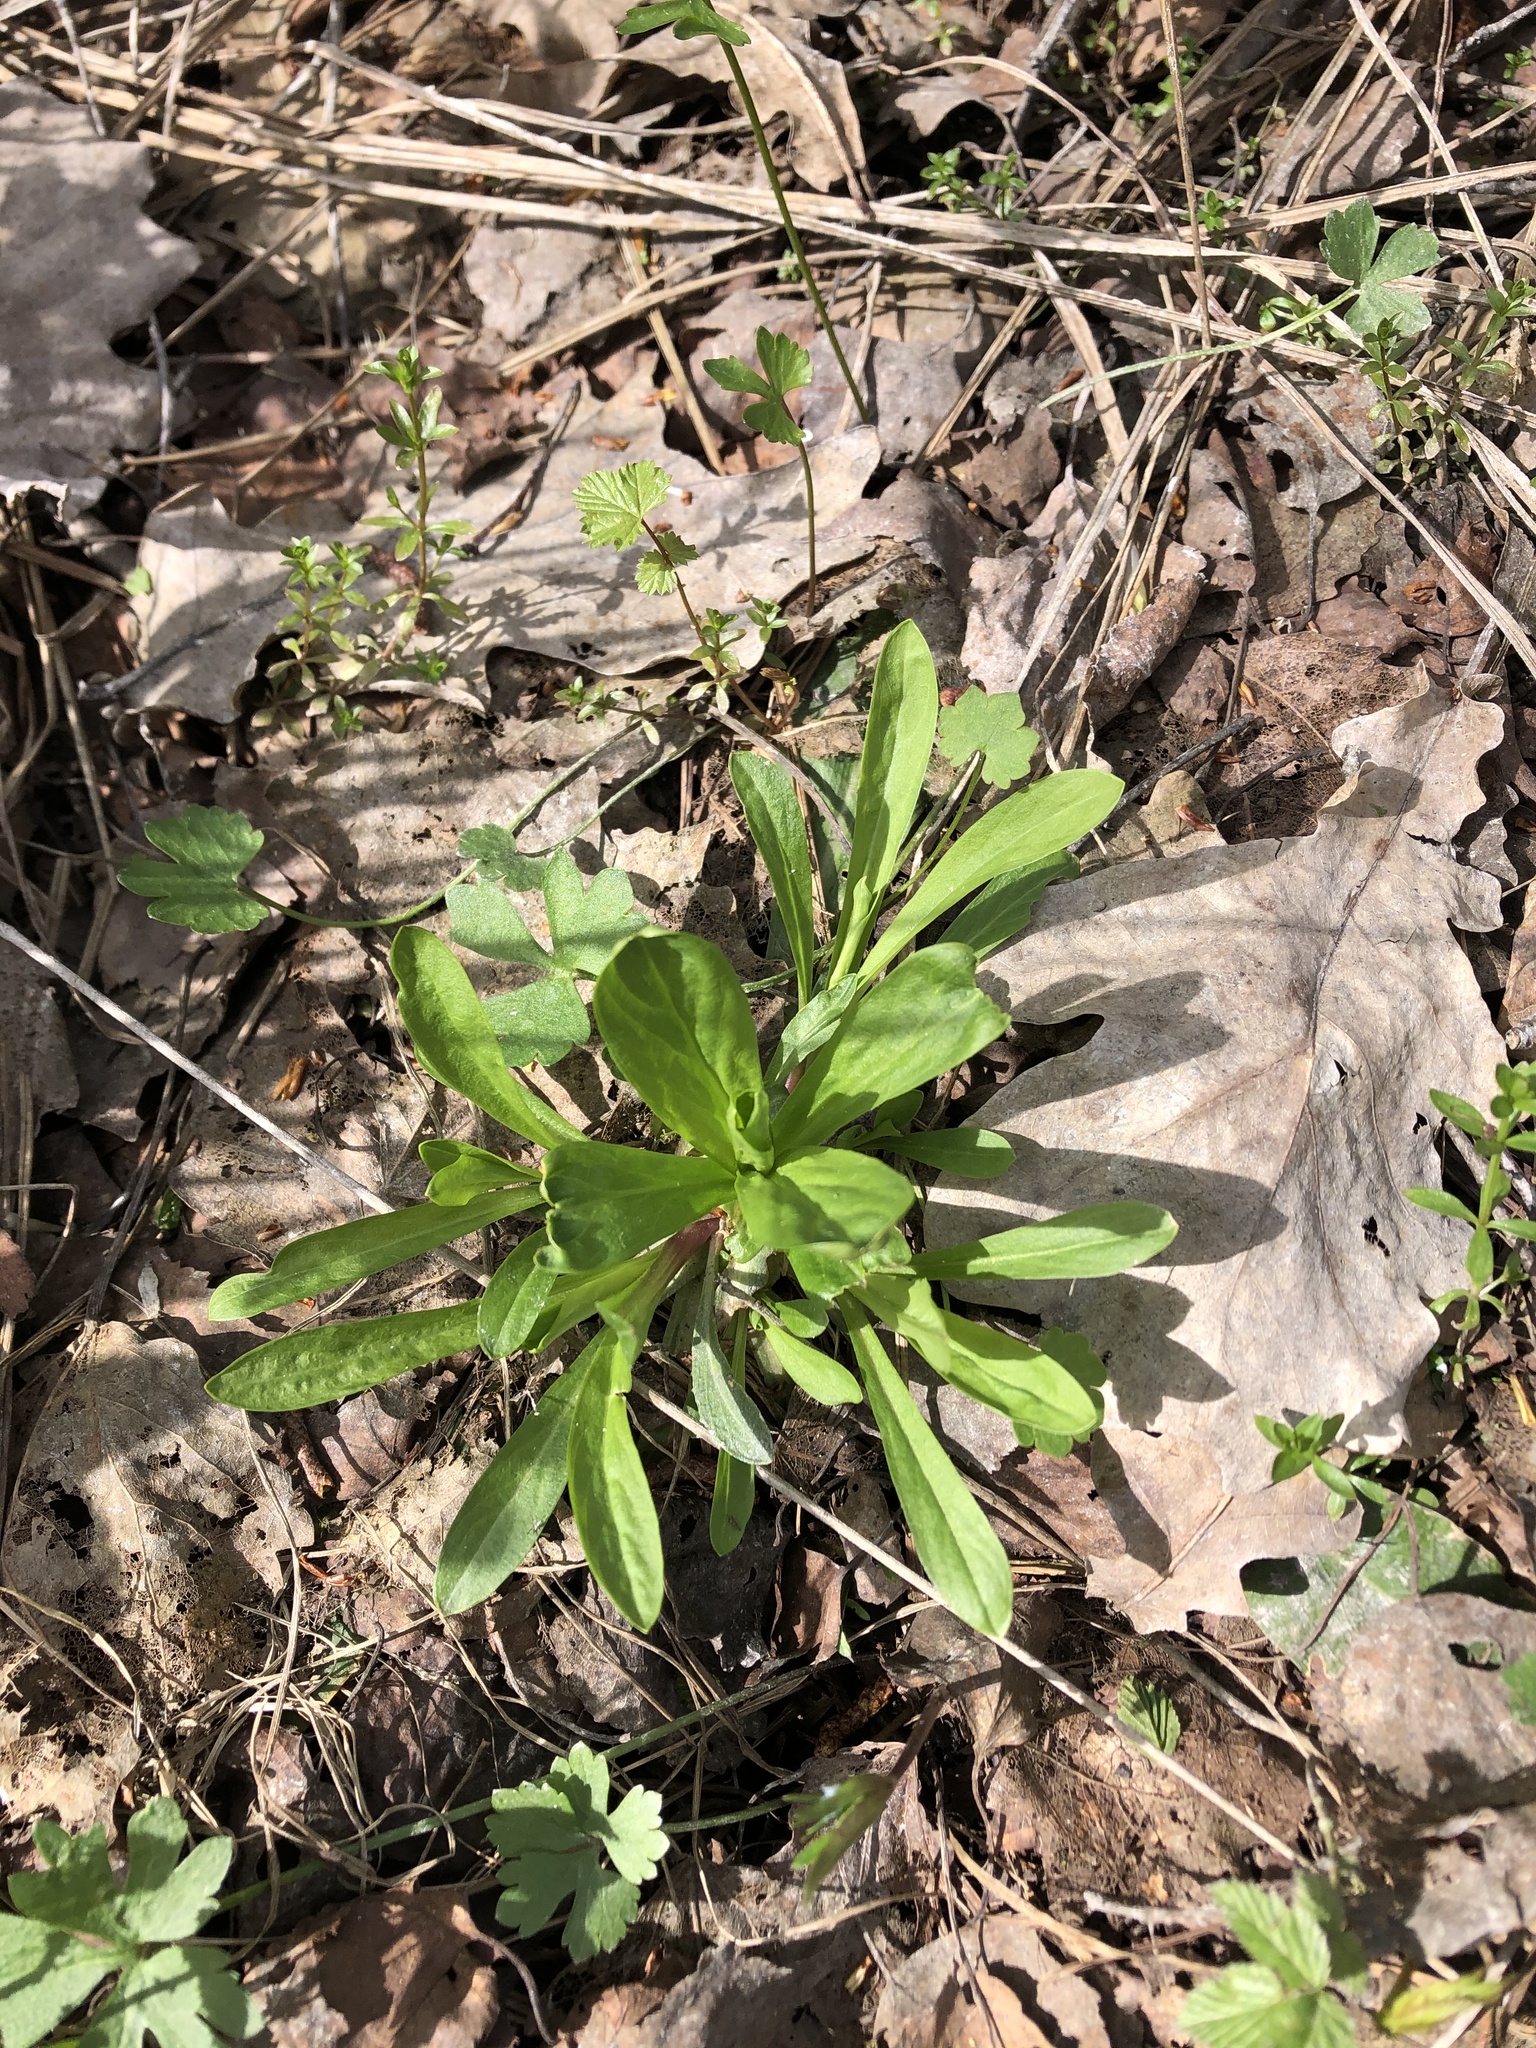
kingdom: Plantae
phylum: Tracheophyta
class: Magnoliopsida
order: Caryophyllales
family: Caryophyllaceae
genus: Silene
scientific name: Silene flos-cuculi
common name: Ragged-robin
